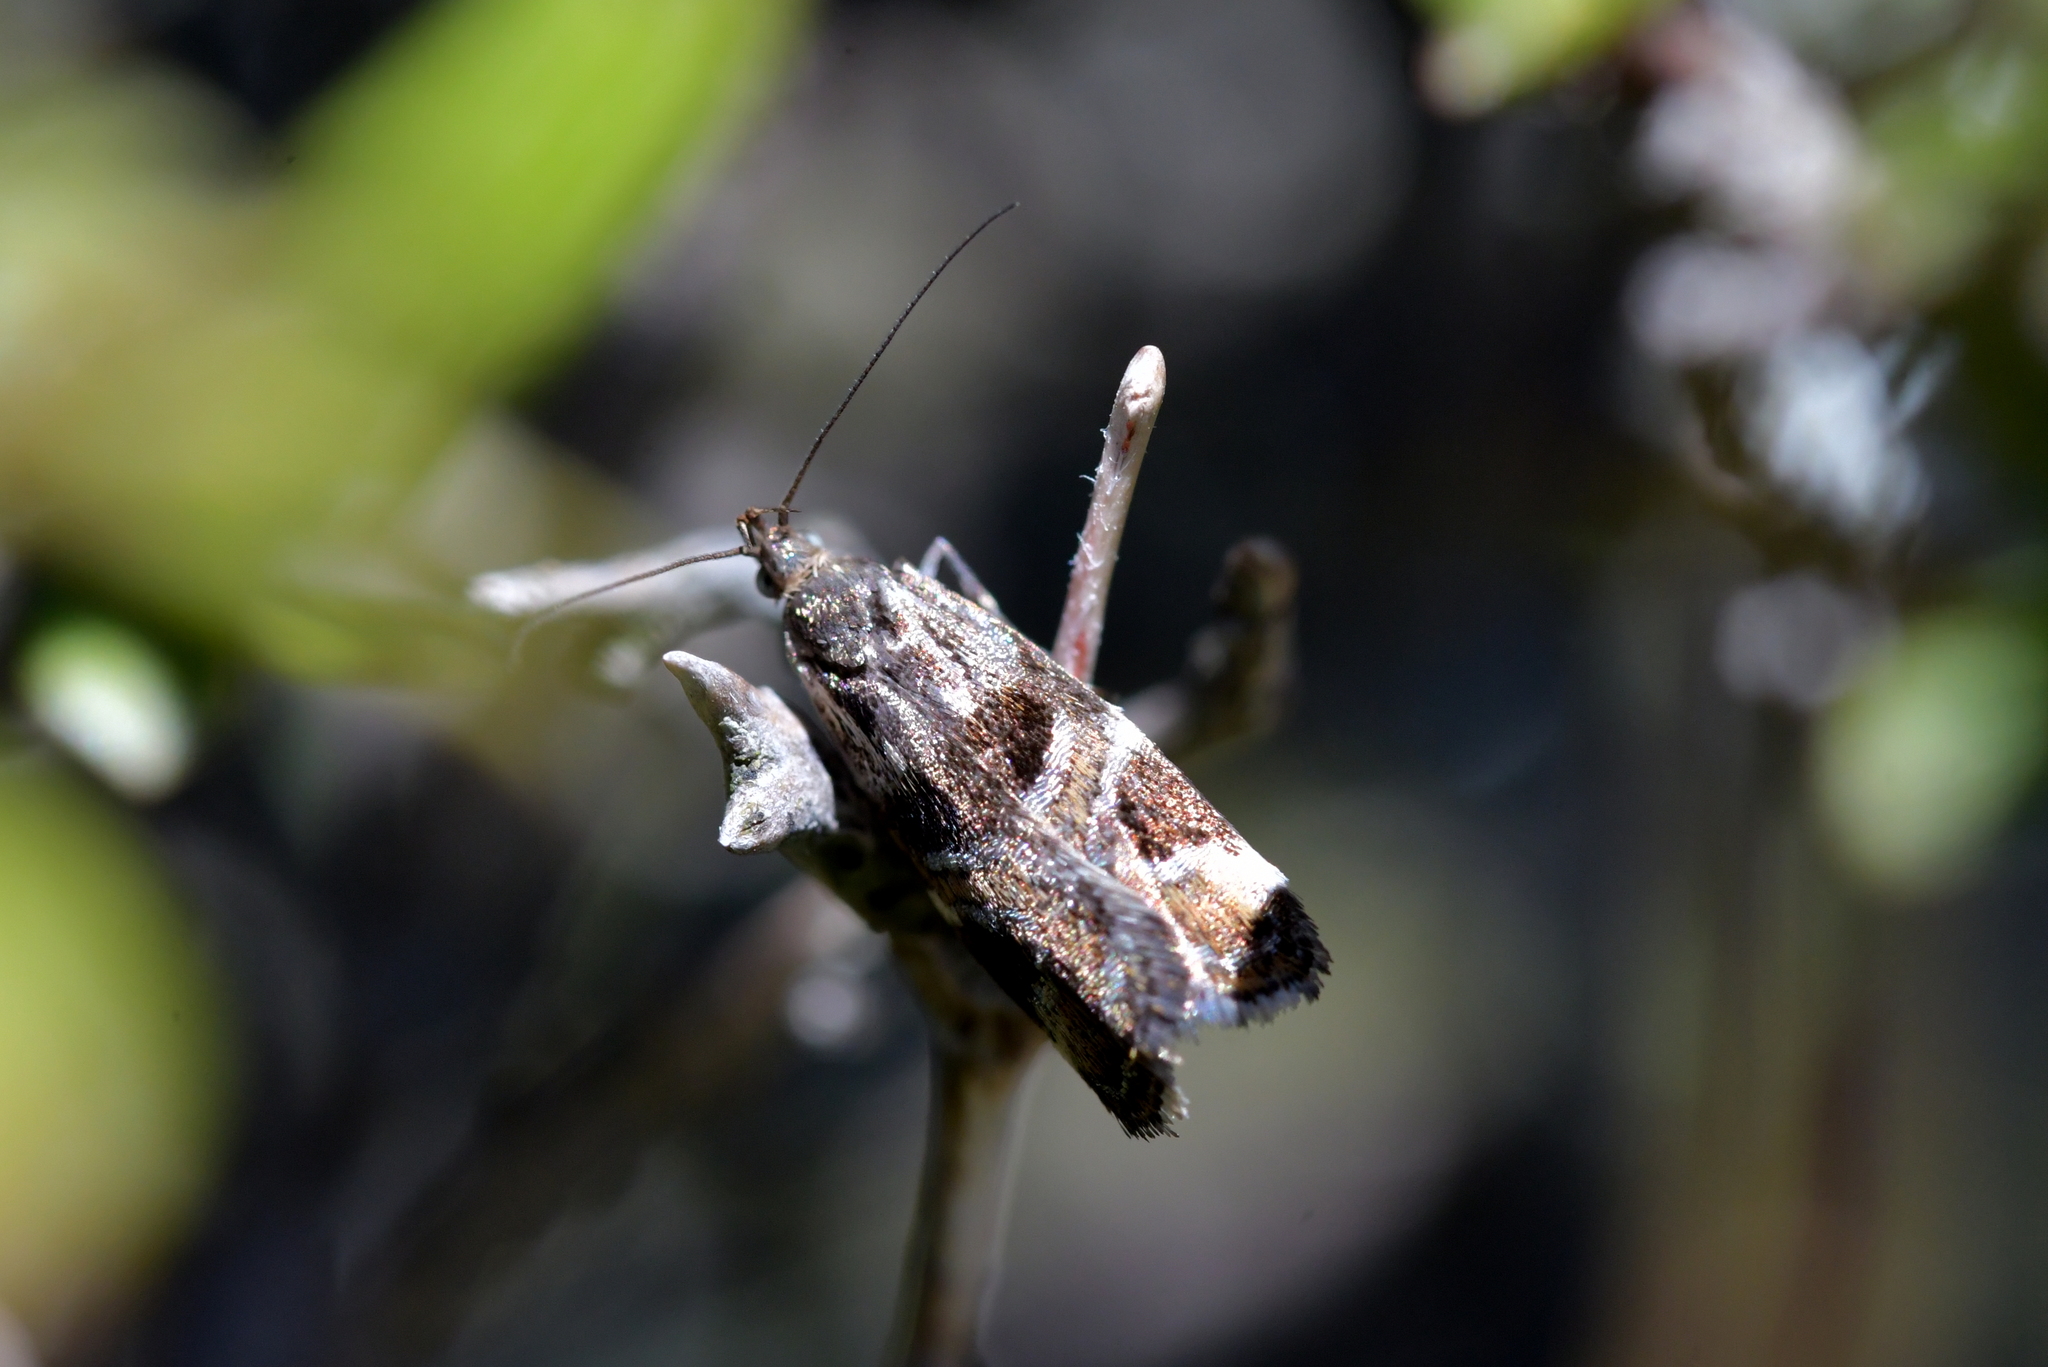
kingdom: Animalia
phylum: Arthropoda
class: Insecta
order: Lepidoptera
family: Oecophoridae
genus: Hierodoris
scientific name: Hierodoris s-fractum
